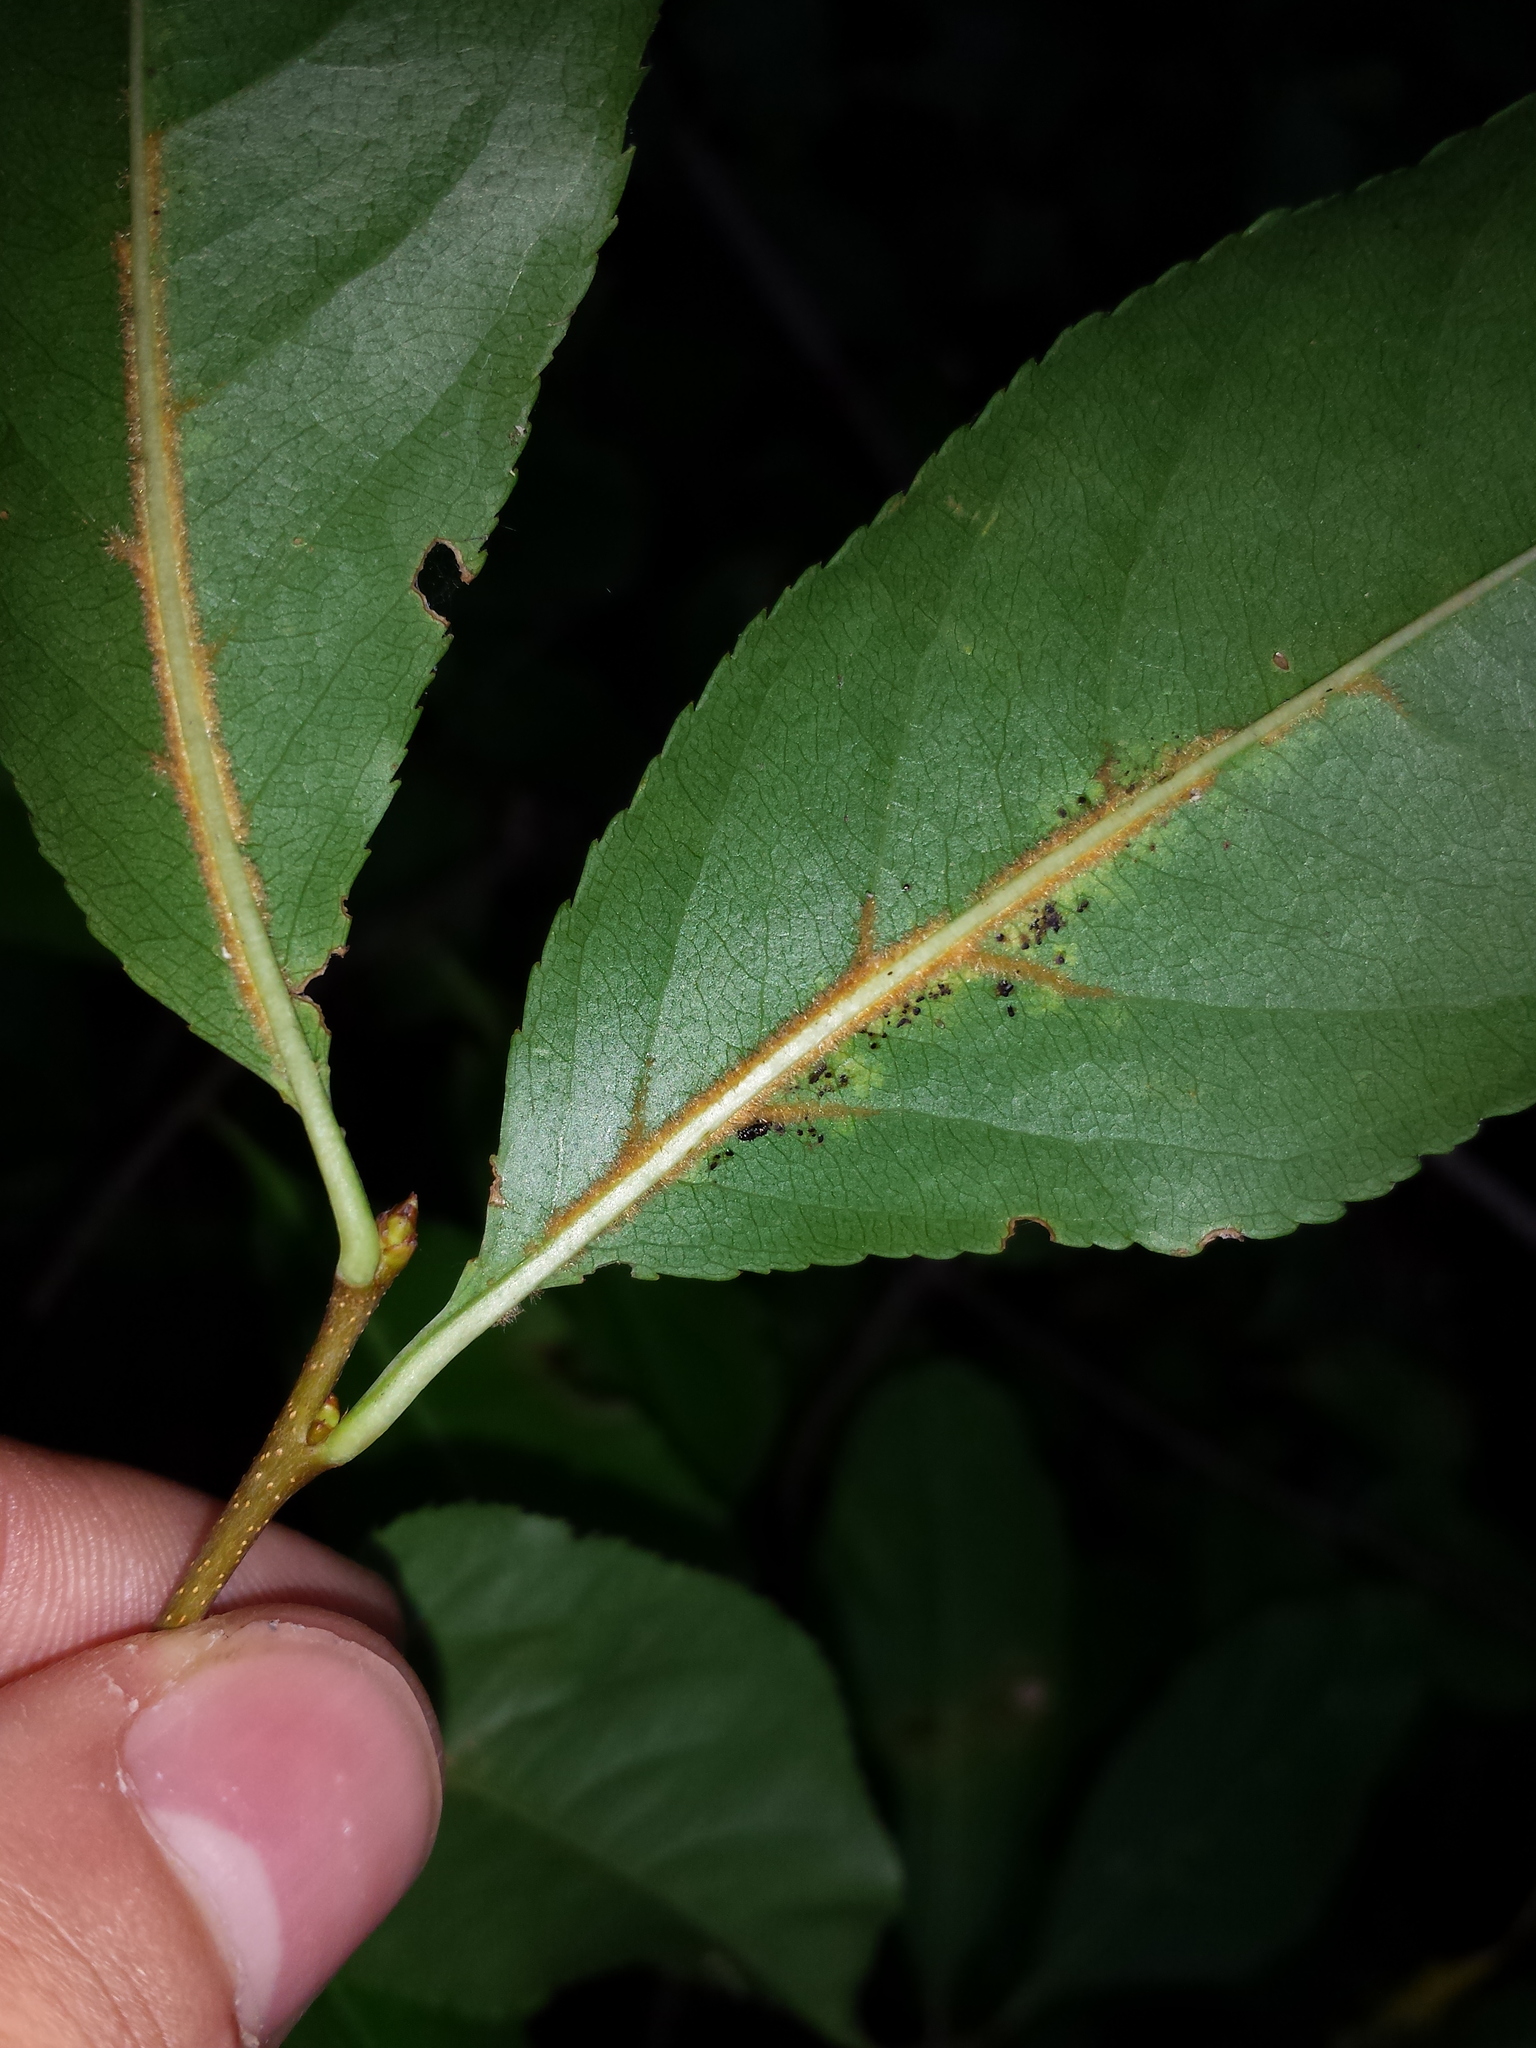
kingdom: Plantae
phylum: Tracheophyta
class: Magnoliopsida
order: Rosales
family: Rosaceae
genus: Prunus
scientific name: Prunus serotina
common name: Black cherry
